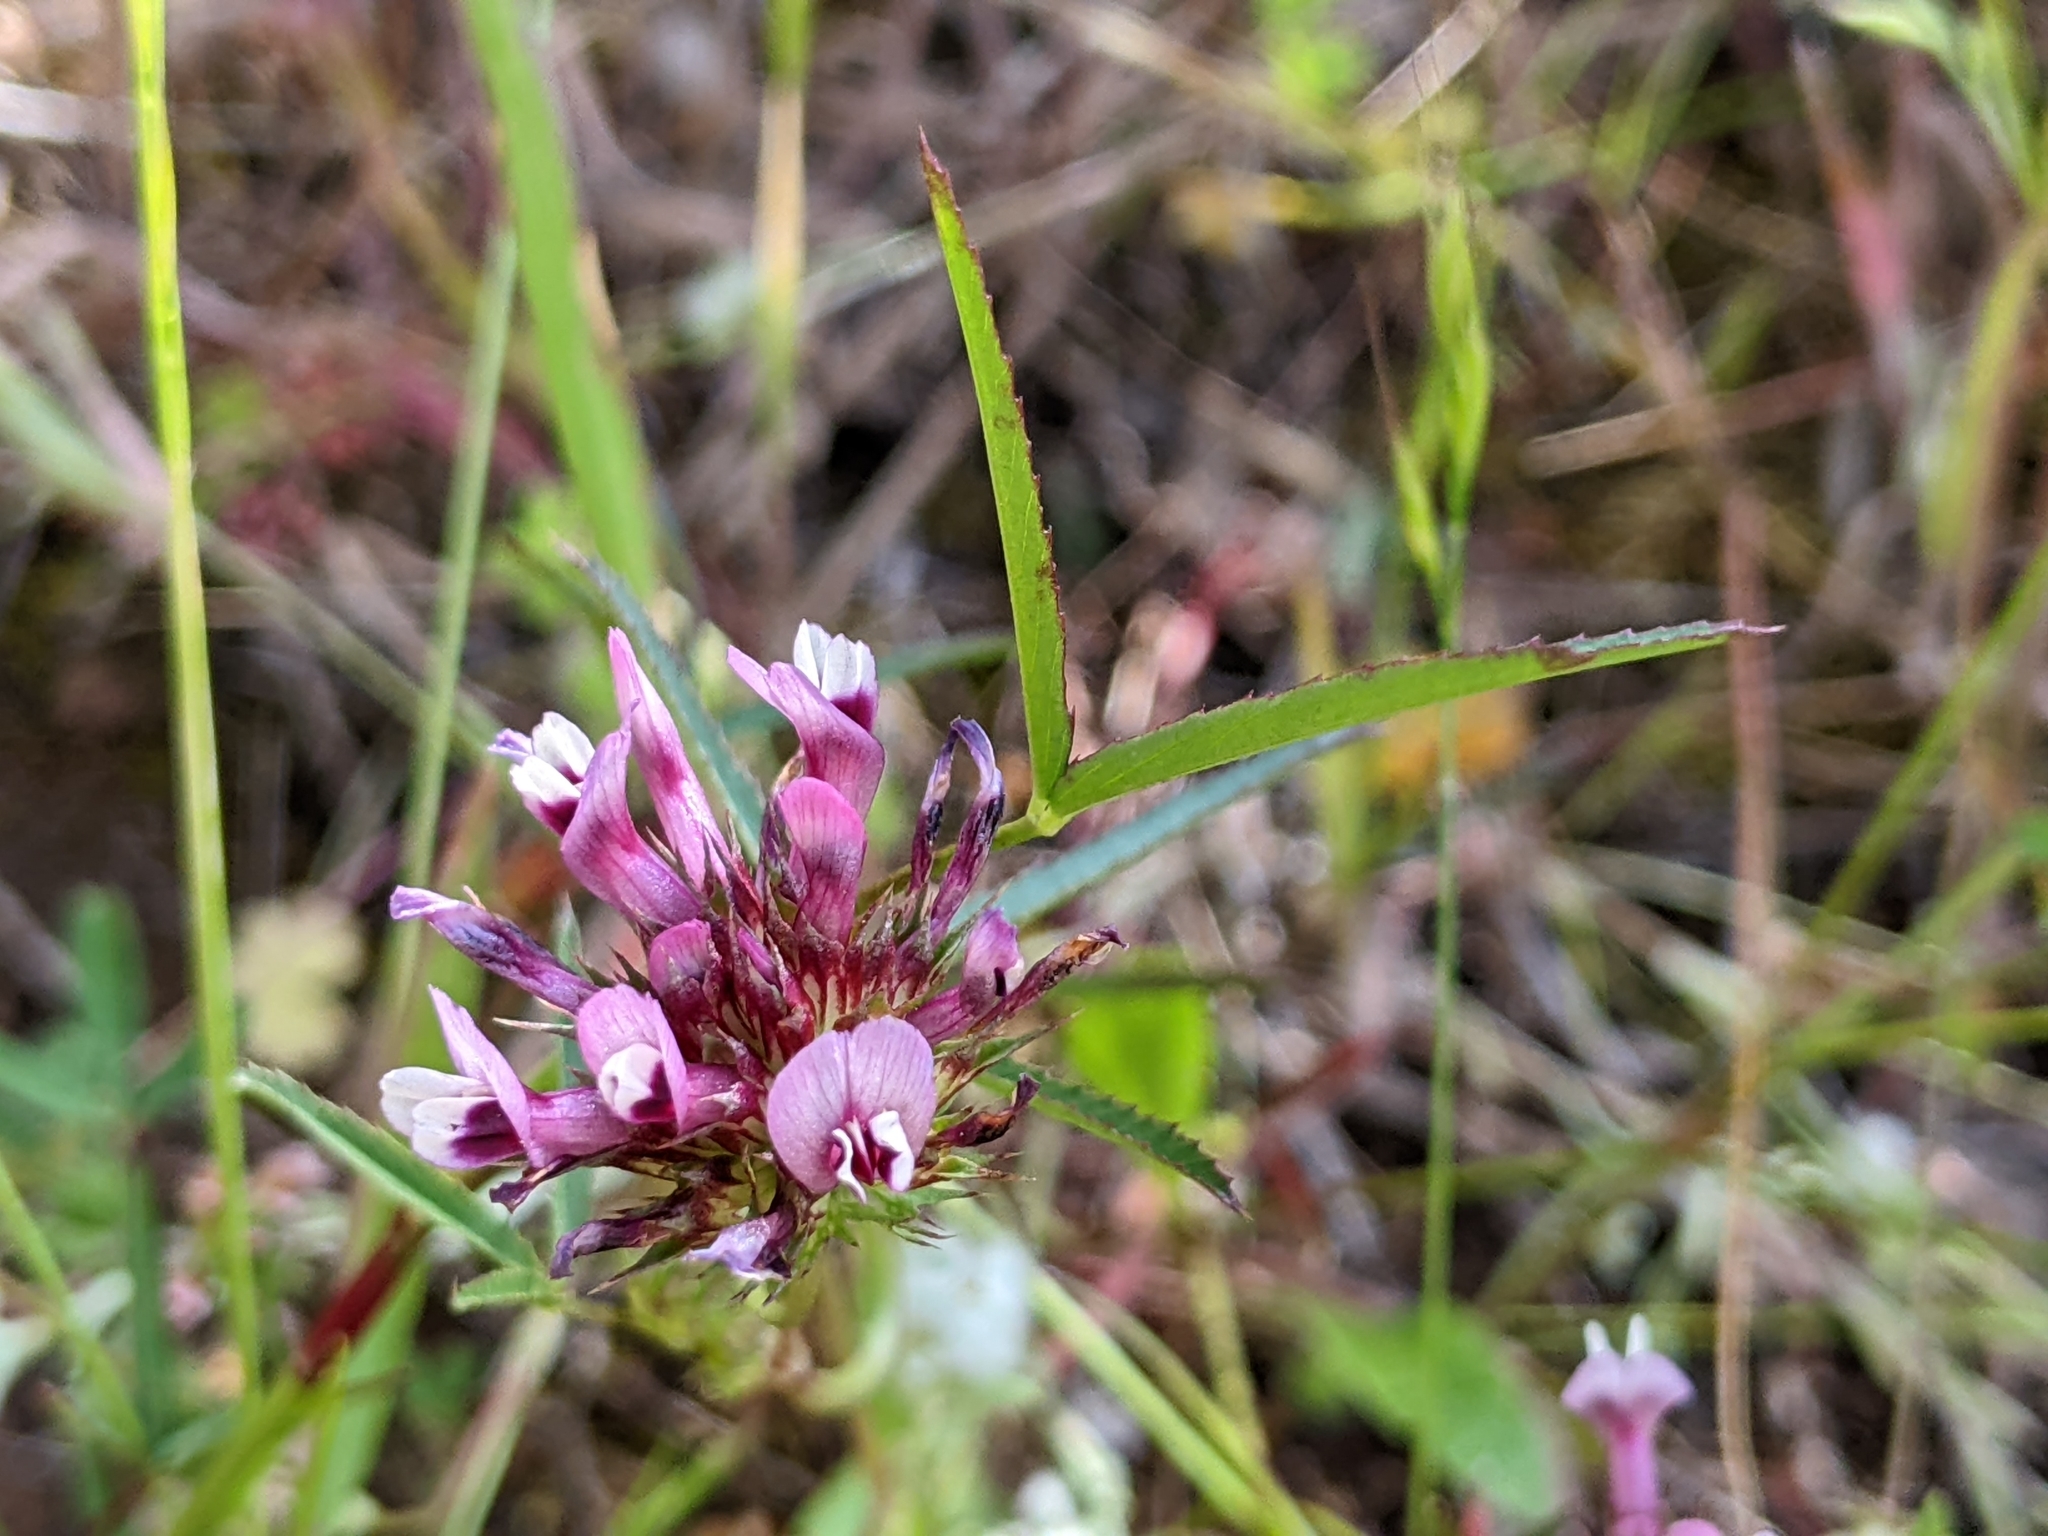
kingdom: Plantae
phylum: Tracheophyta
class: Magnoliopsida
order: Fabales
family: Fabaceae
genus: Trifolium
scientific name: Trifolium willdenovii
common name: Tomcat clover
